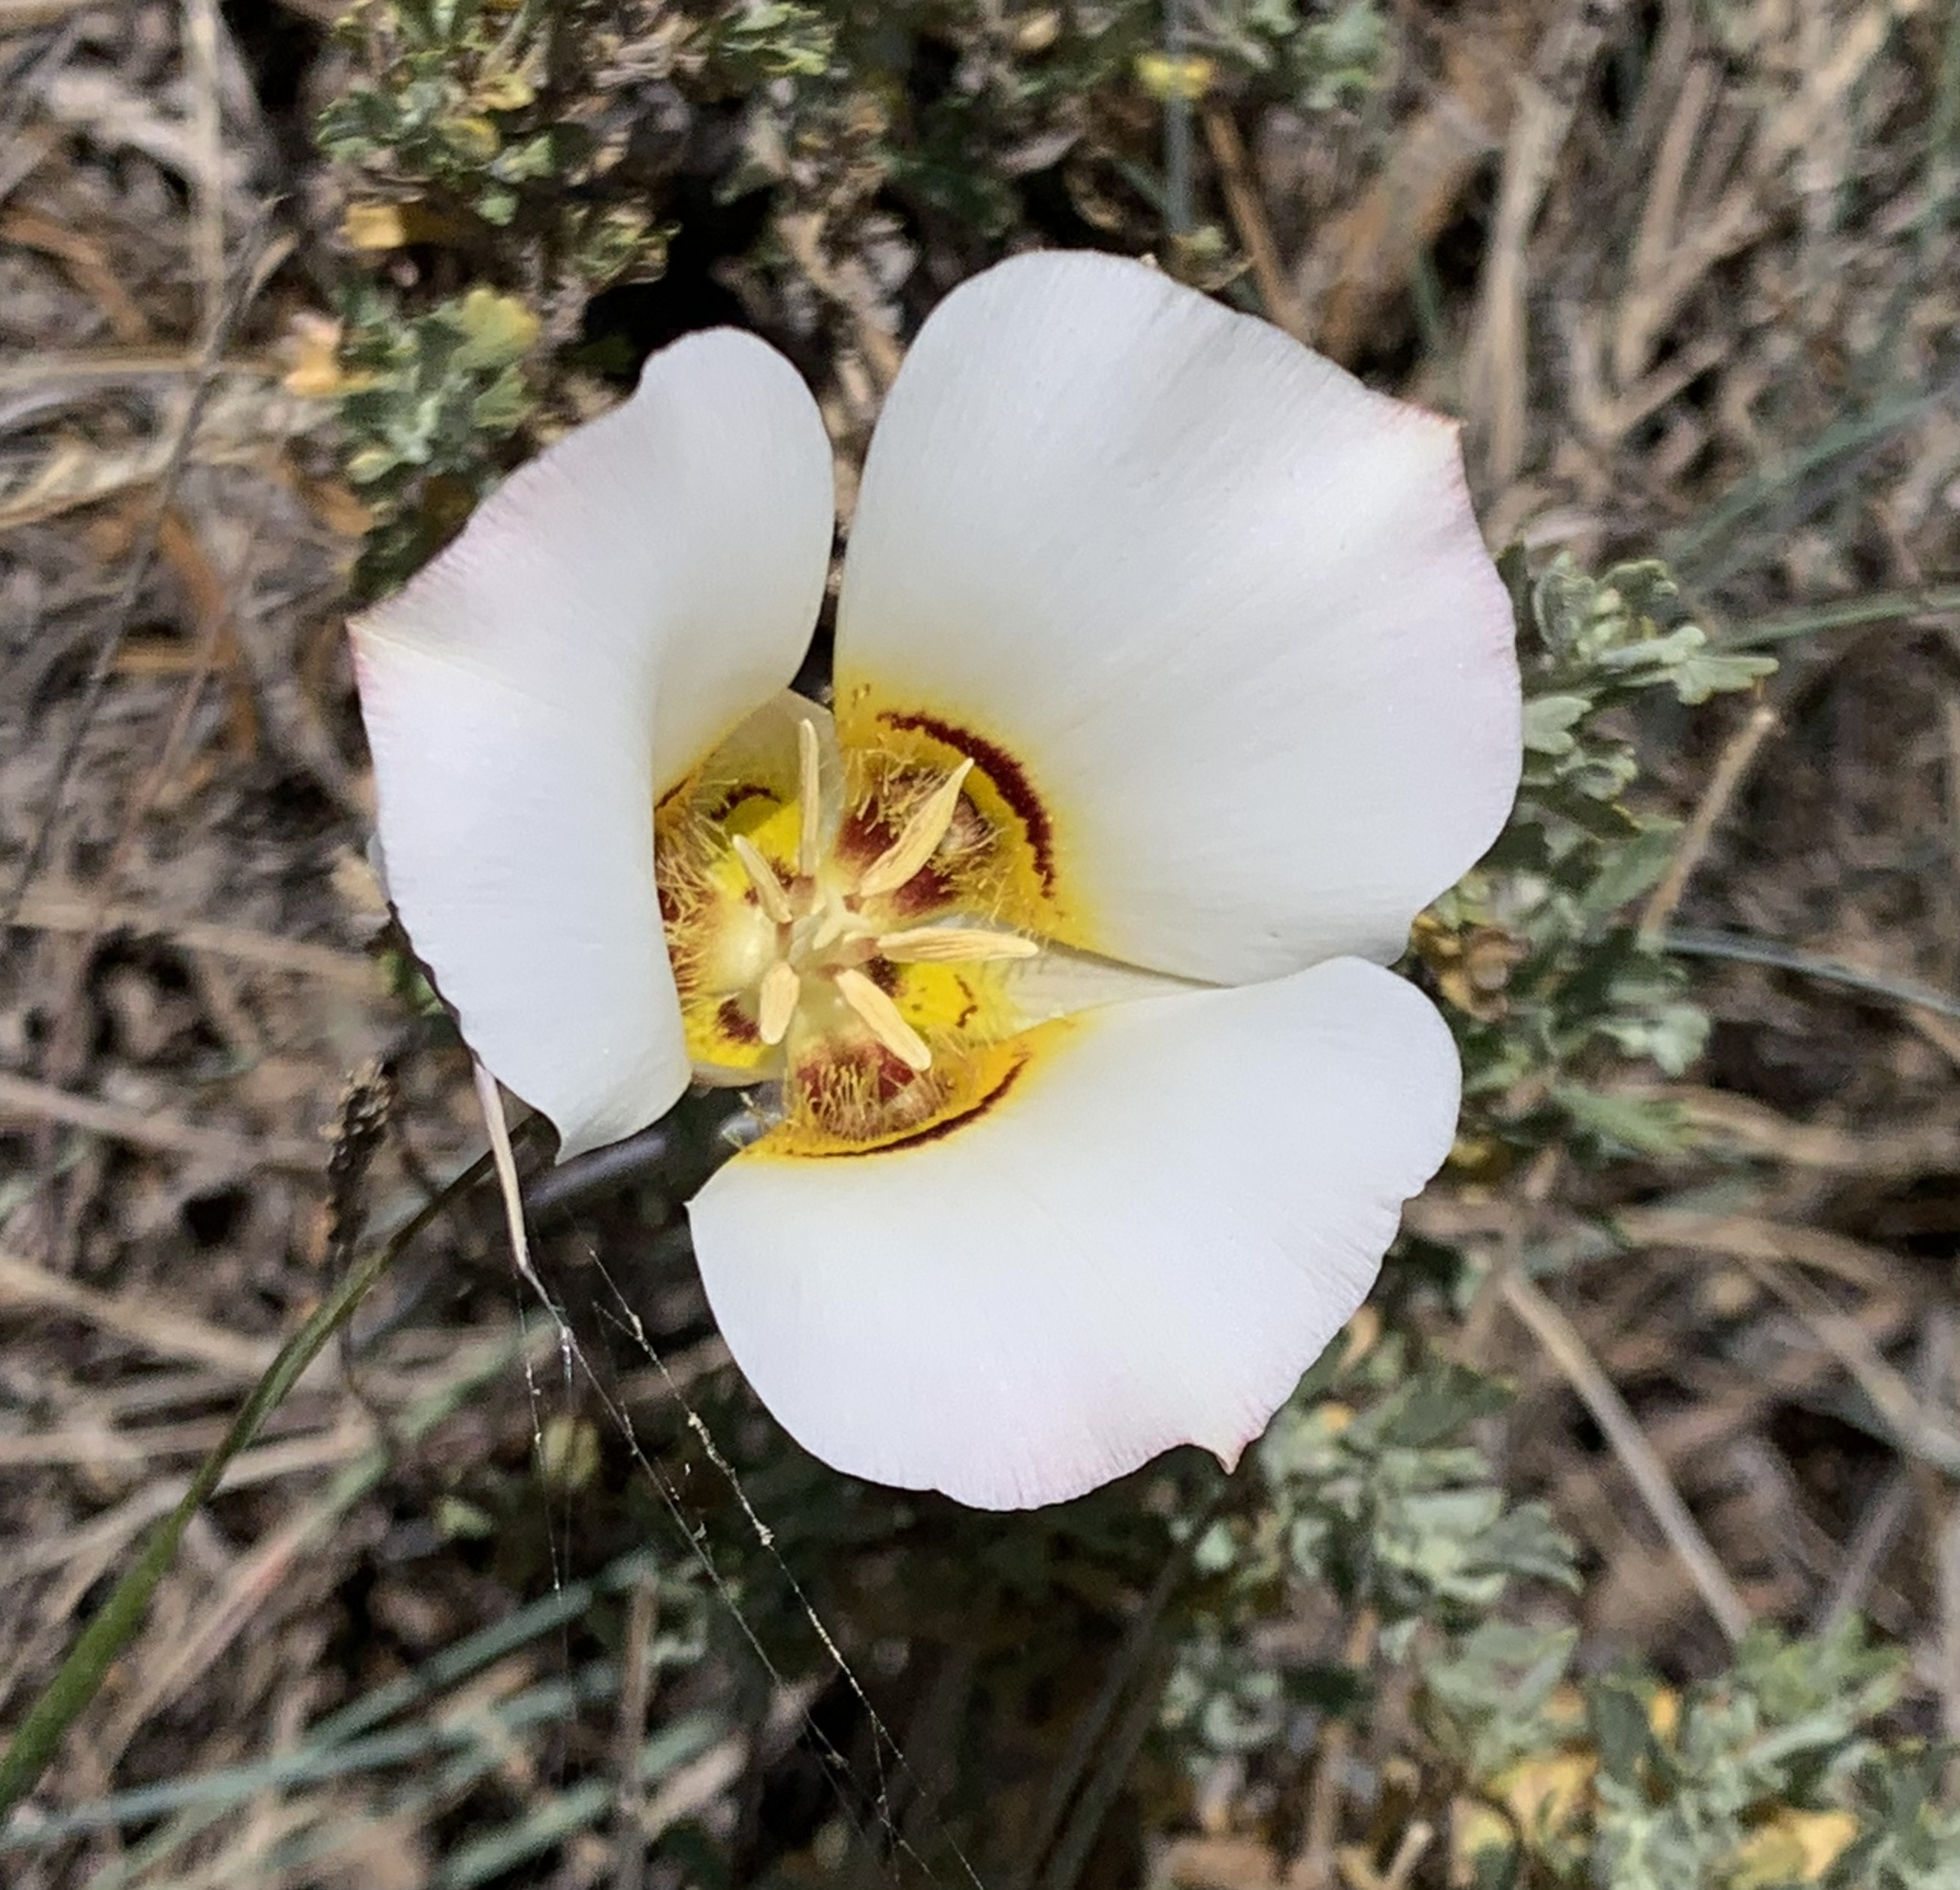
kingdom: Plantae
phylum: Tracheophyta
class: Liliopsida
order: Liliales
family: Liliaceae
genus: Calochortus
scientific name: Calochortus nuttallii
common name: Sego-lily
